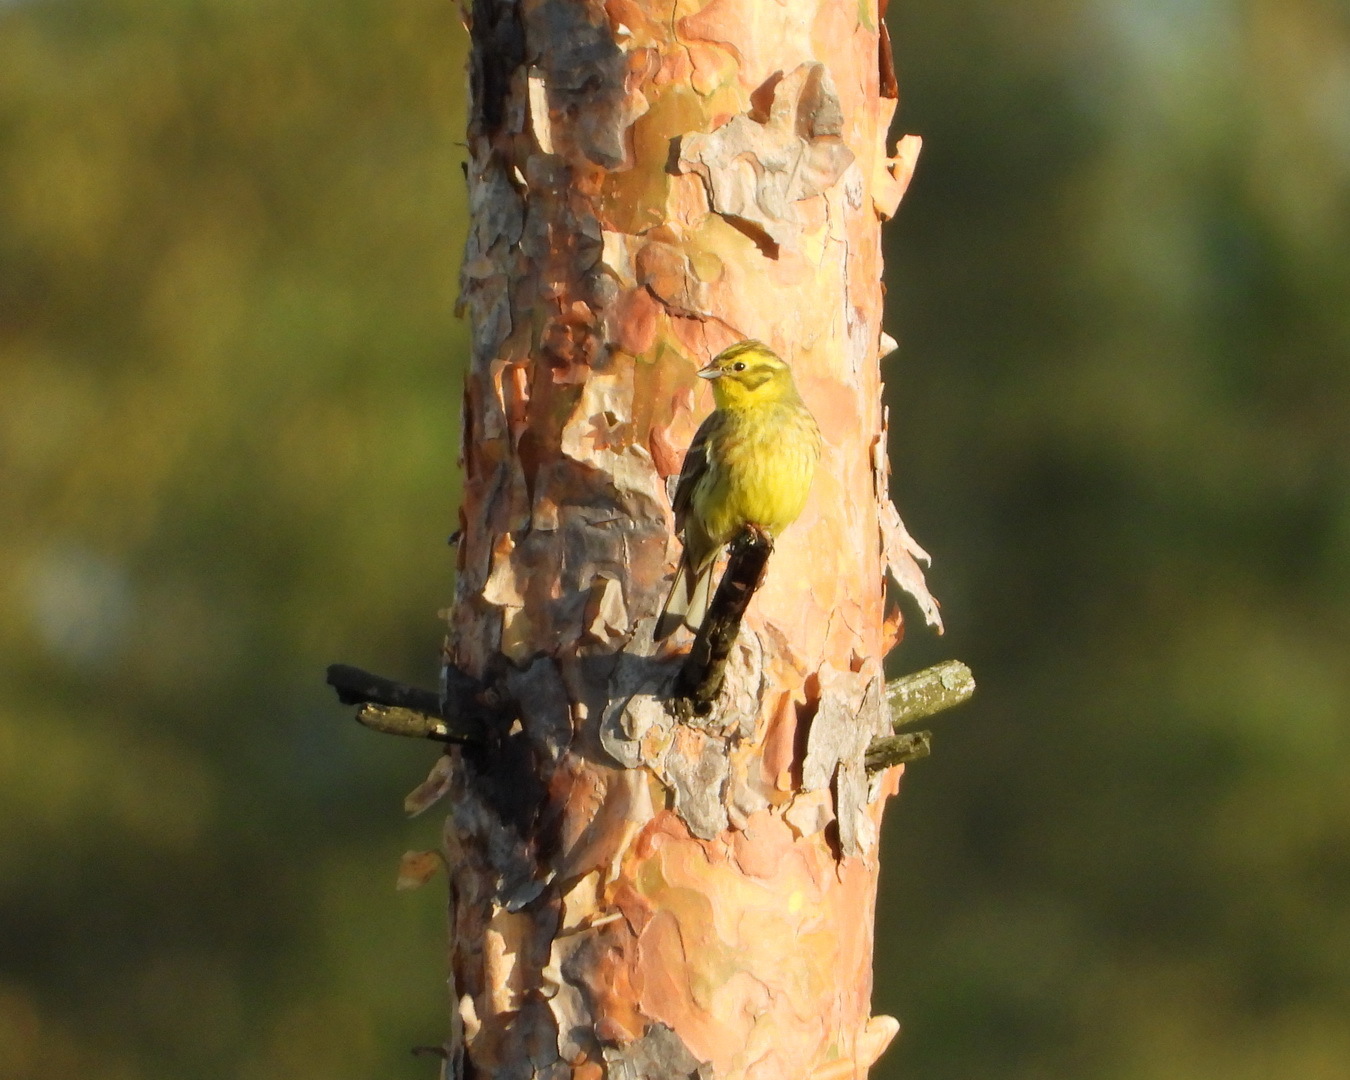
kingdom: Animalia
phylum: Chordata
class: Aves
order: Passeriformes
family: Emberizidae
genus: Emberiza
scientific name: Emberiza citrinella
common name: Yellowhammer
